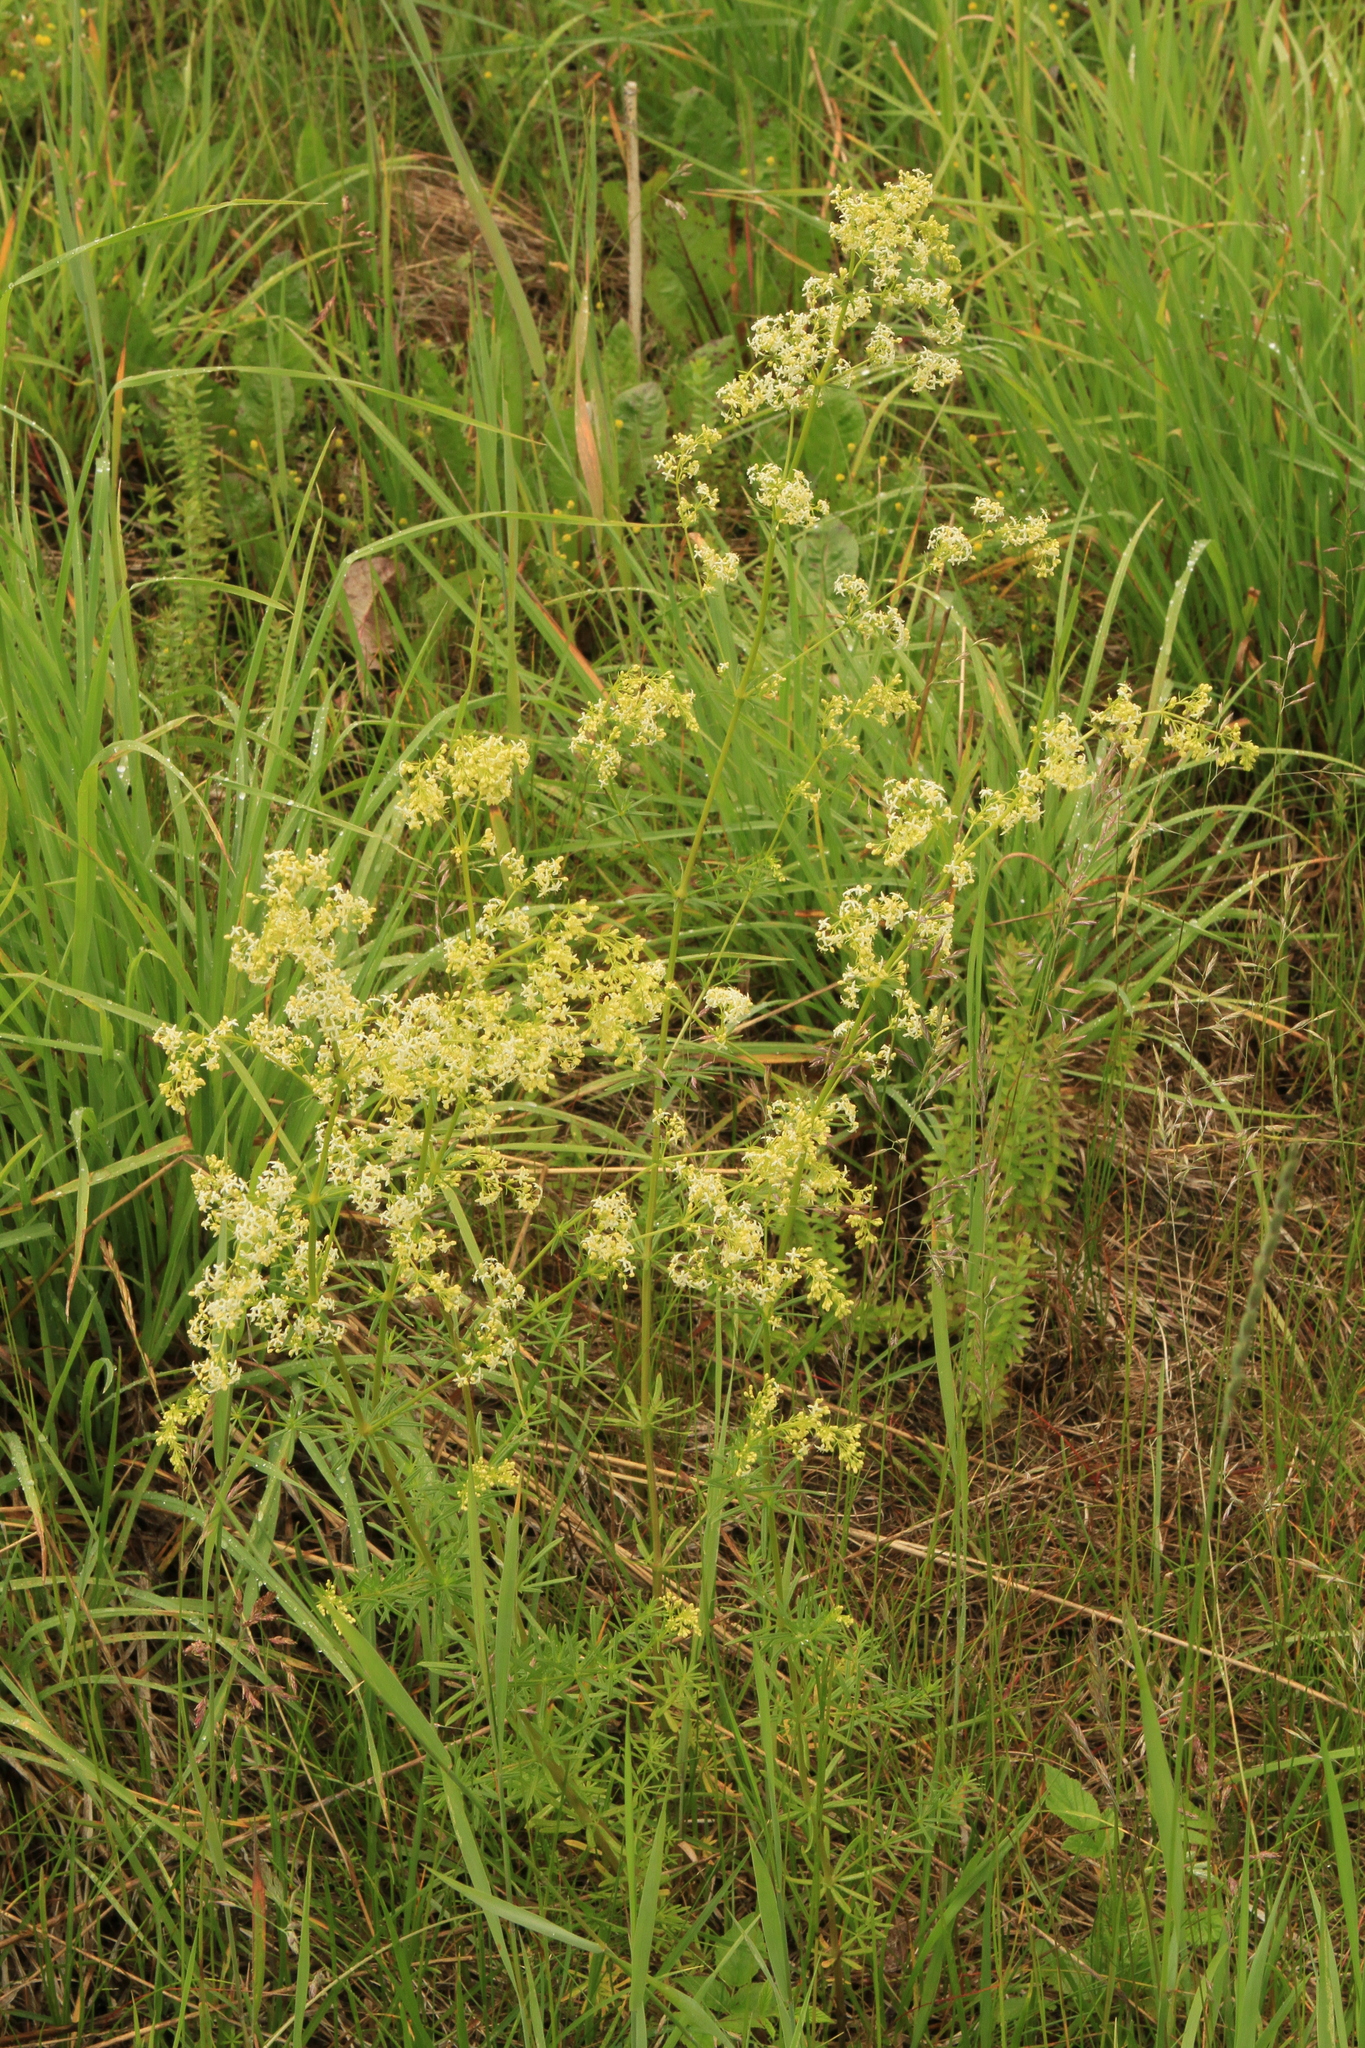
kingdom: Plantae
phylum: Tracheophyta
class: Magnoliopsida
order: Gentianales
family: Rubiaceae
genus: Galium
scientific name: Galium pomeranicum
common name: Bedstraw
